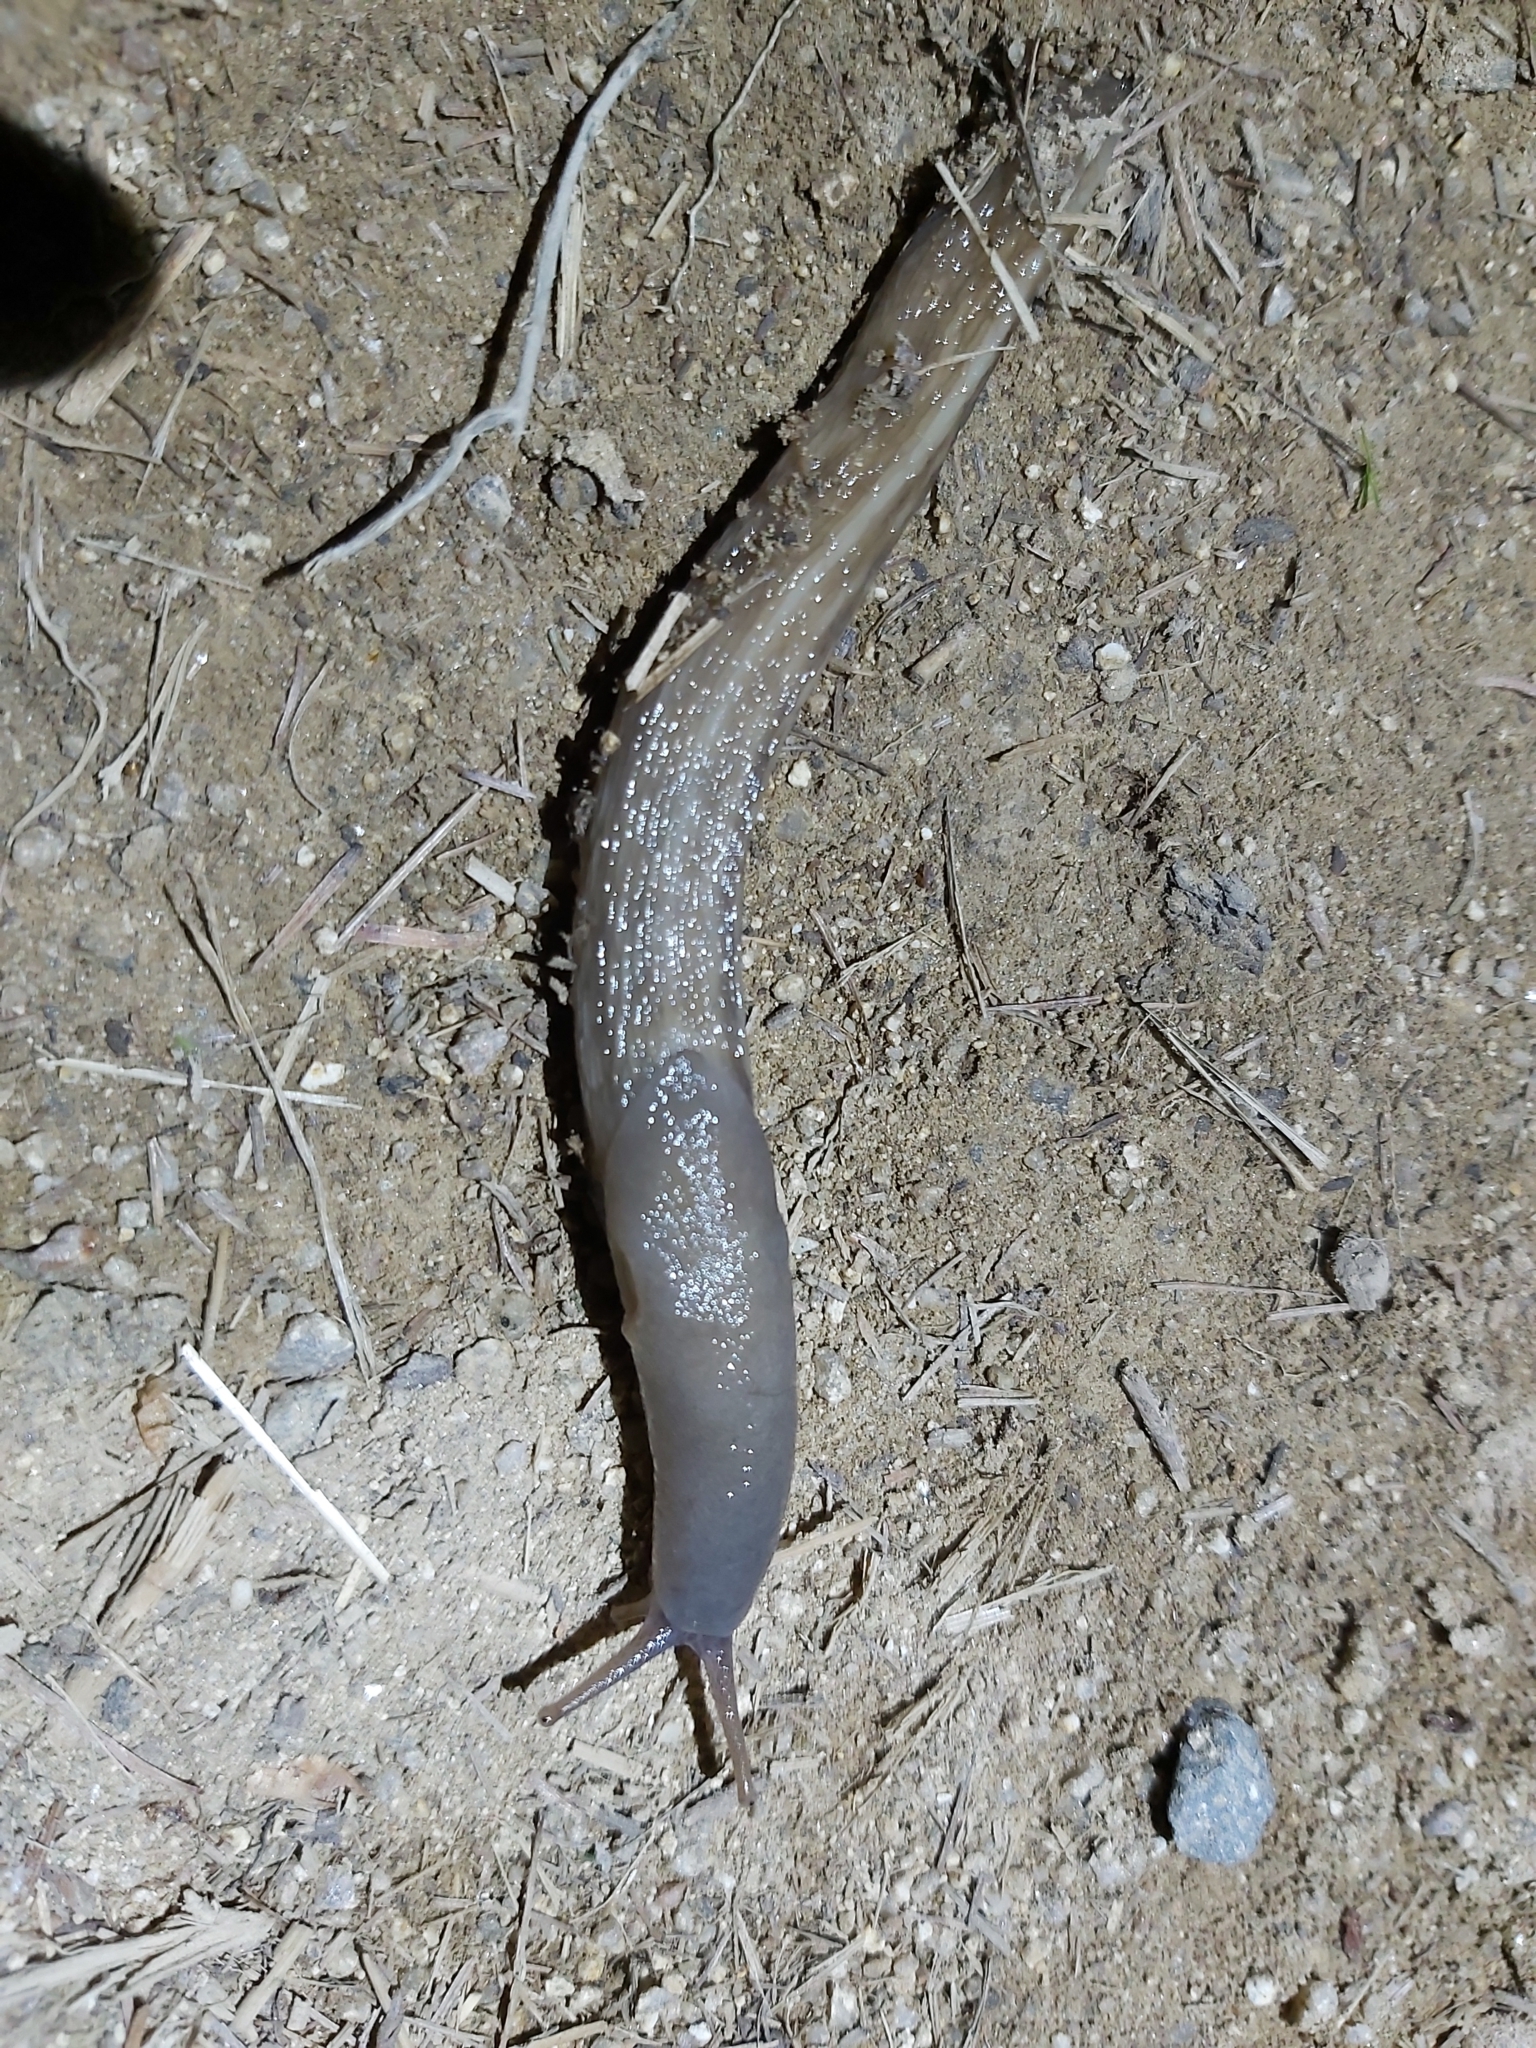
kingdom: Animalia
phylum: Mollusca
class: Gastropoda
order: Stylommatophora
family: Limacidae
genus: Limax
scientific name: Limax cinereoniger
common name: Ash-black slug
